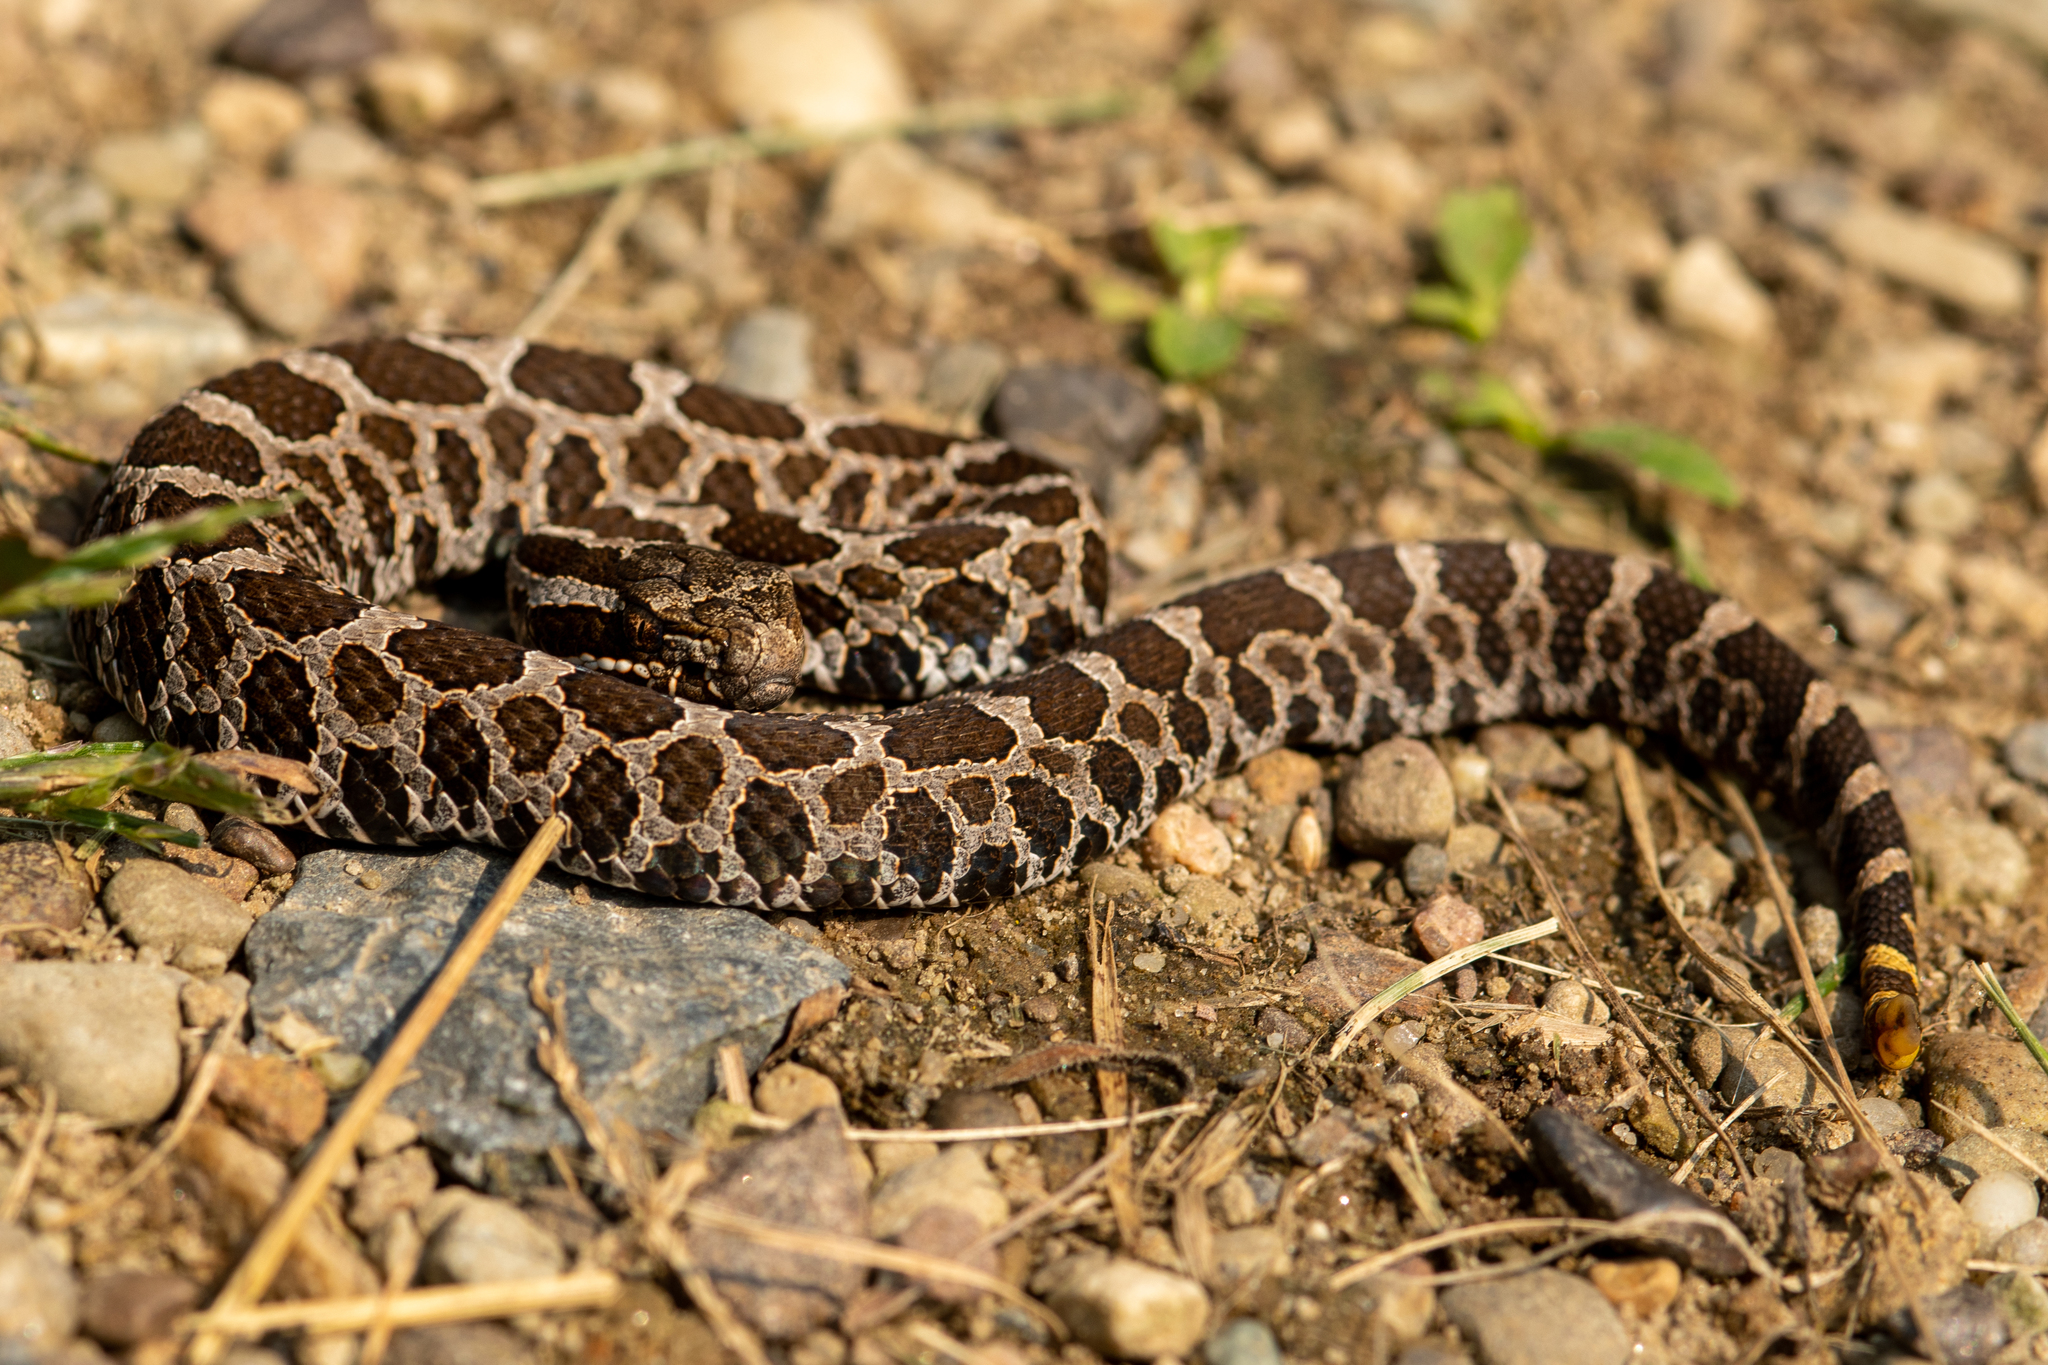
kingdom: Animalia
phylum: Chordata
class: Squamata
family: Viperidae
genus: Sistrurus
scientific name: Sistrurus catenatus
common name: Massasauga
